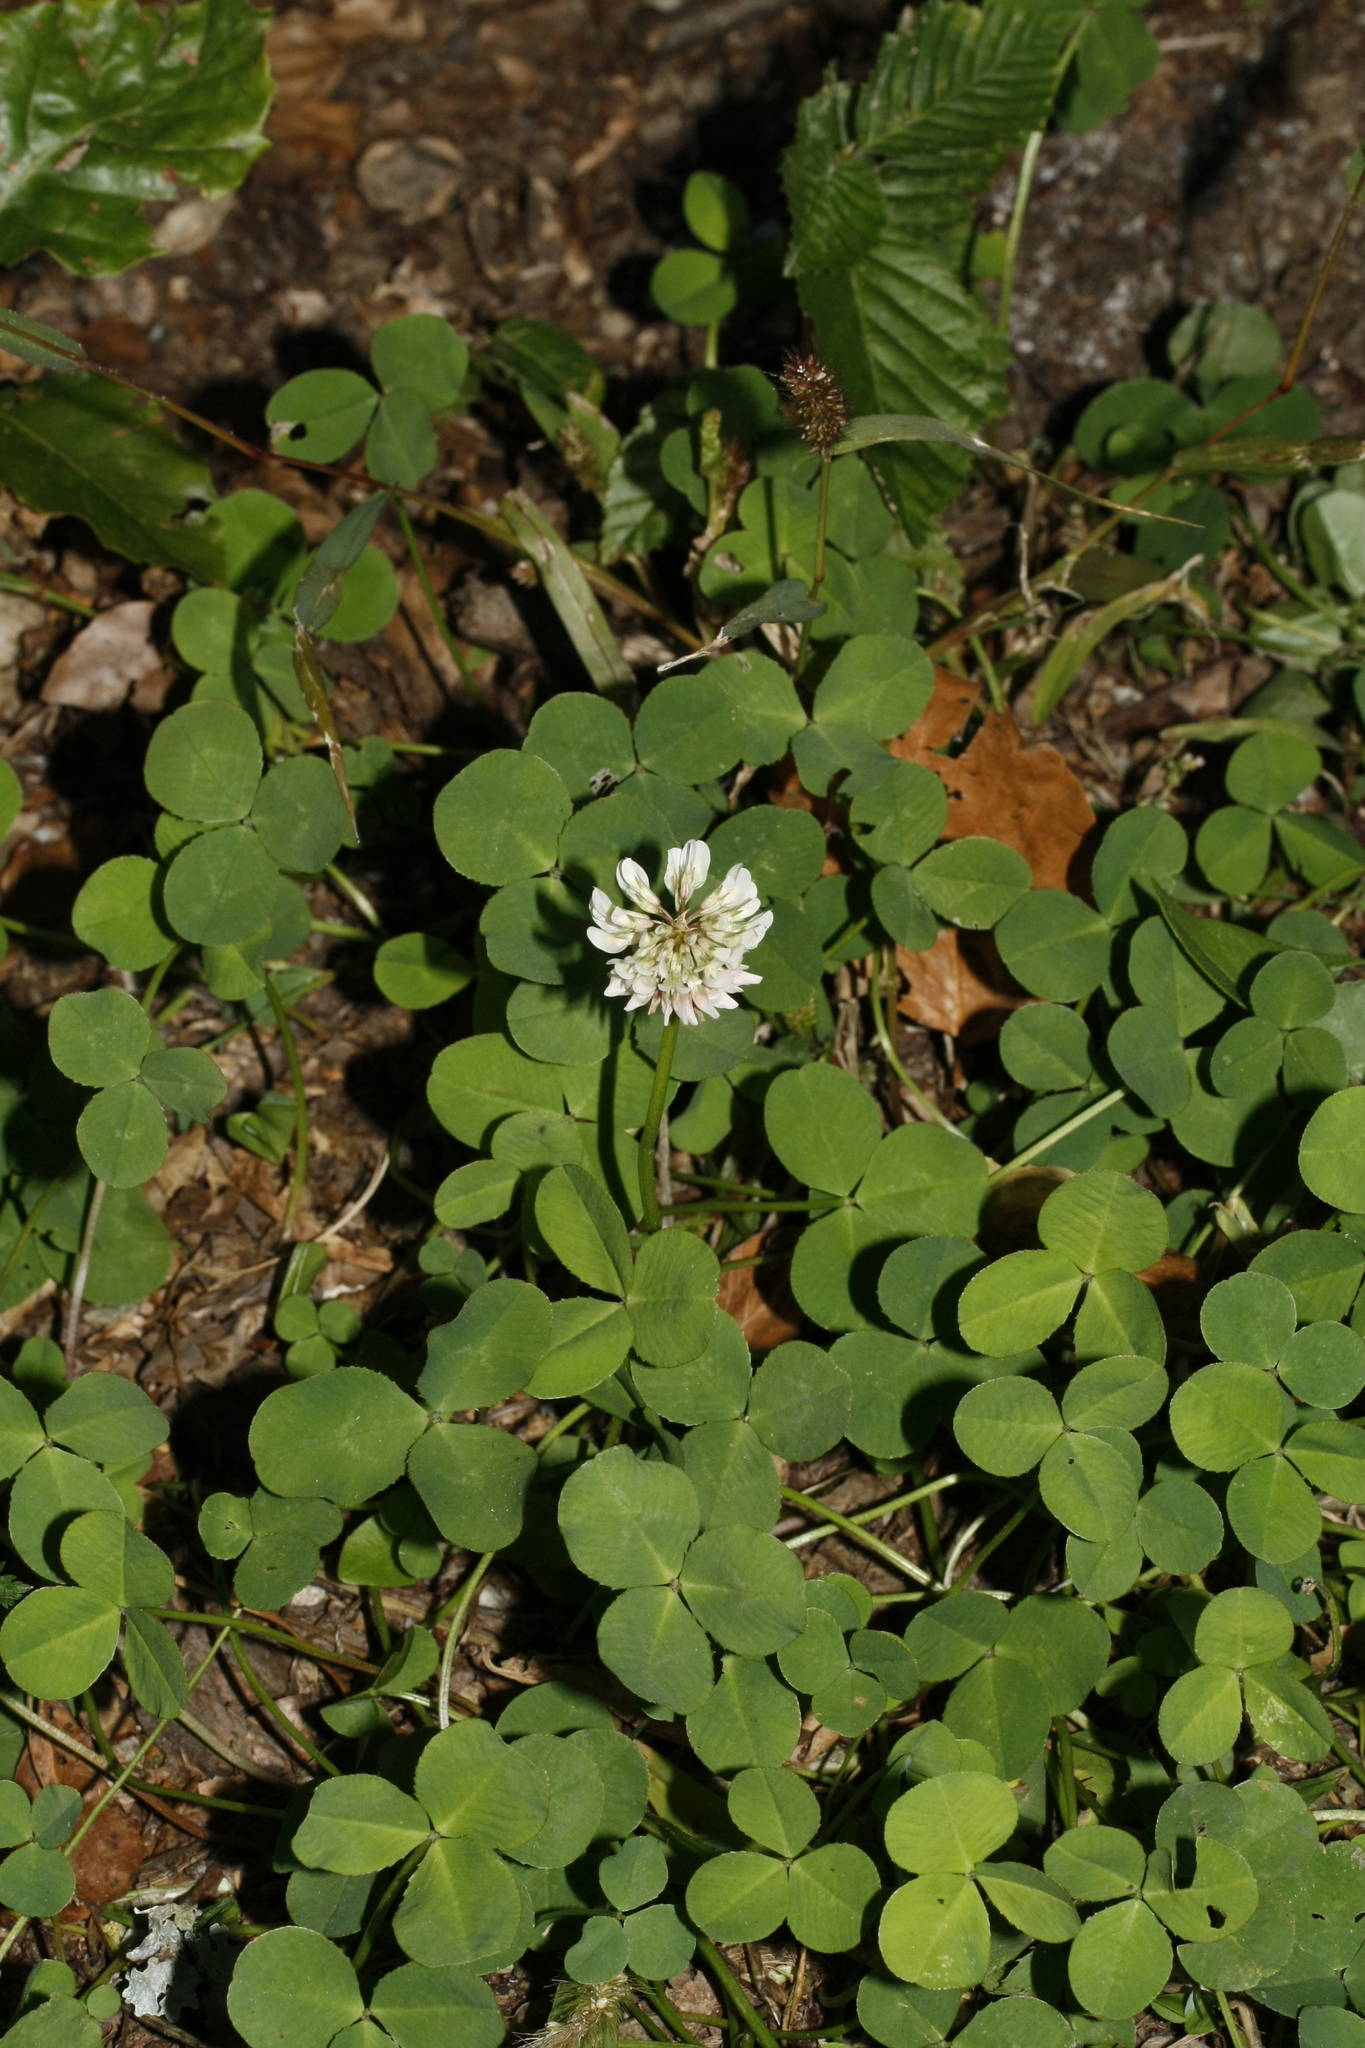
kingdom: Plantae
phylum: Tracheophyta
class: Magnoliopsida
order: Fabales
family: Fabaceae
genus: Trifolium
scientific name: Trifolium repens
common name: White clover
